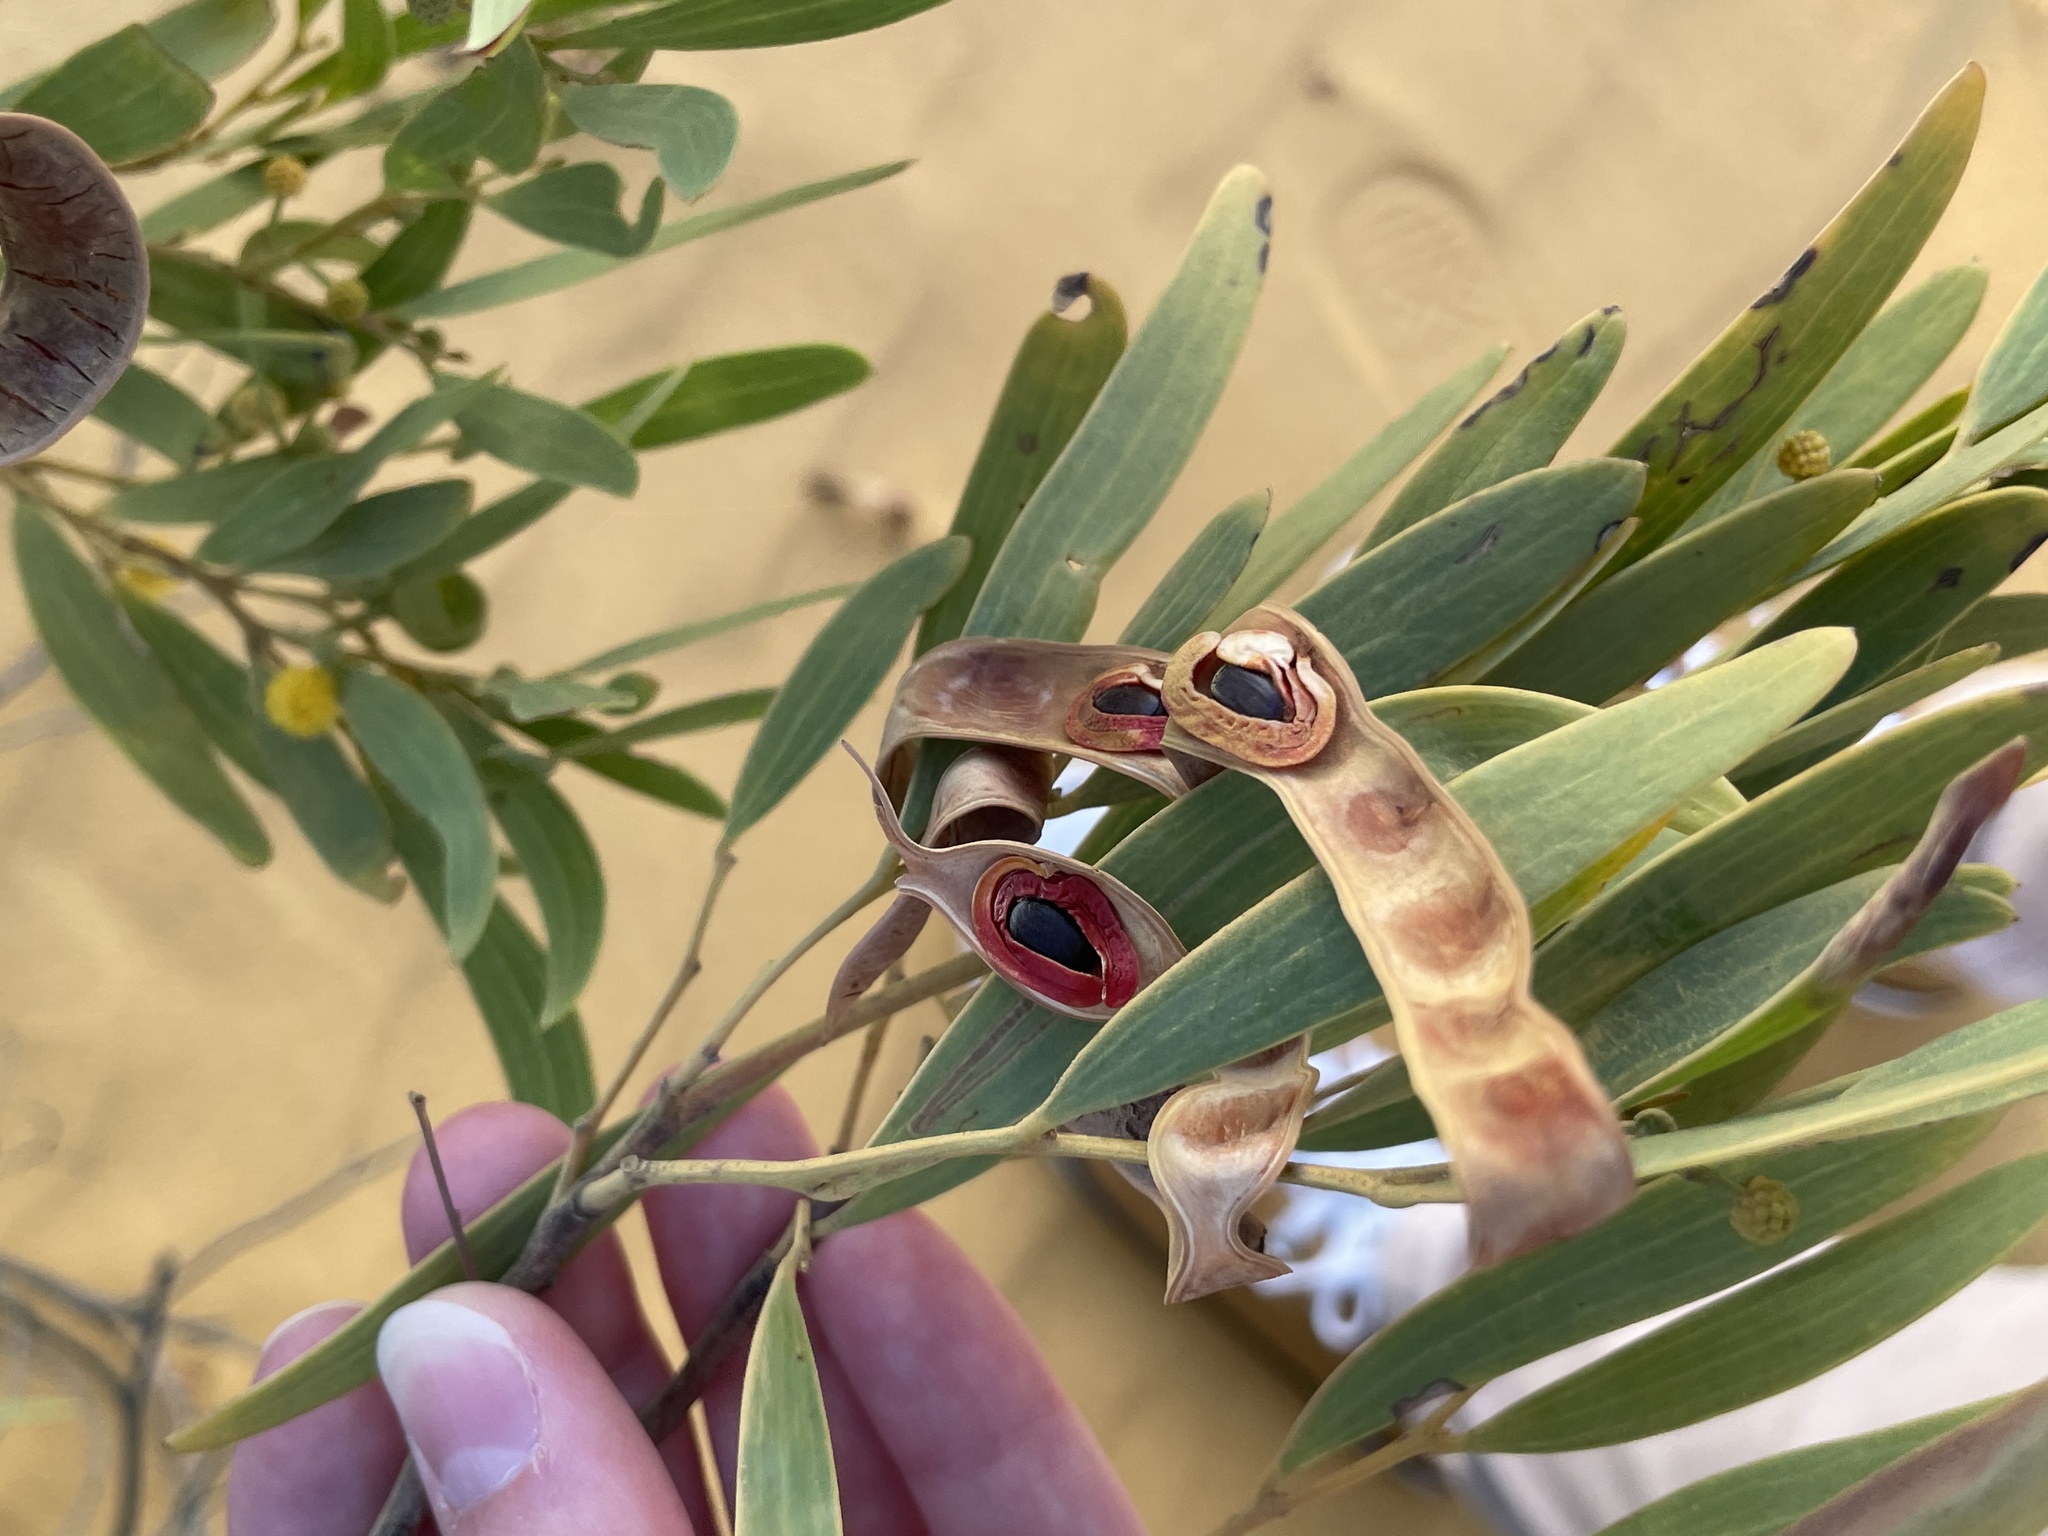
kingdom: Plantae
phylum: Tracheophyta
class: Magnoliopsida
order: Fabales
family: Fabaceae
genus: Acacia
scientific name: Acacia cyclops
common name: Coastal wattle
